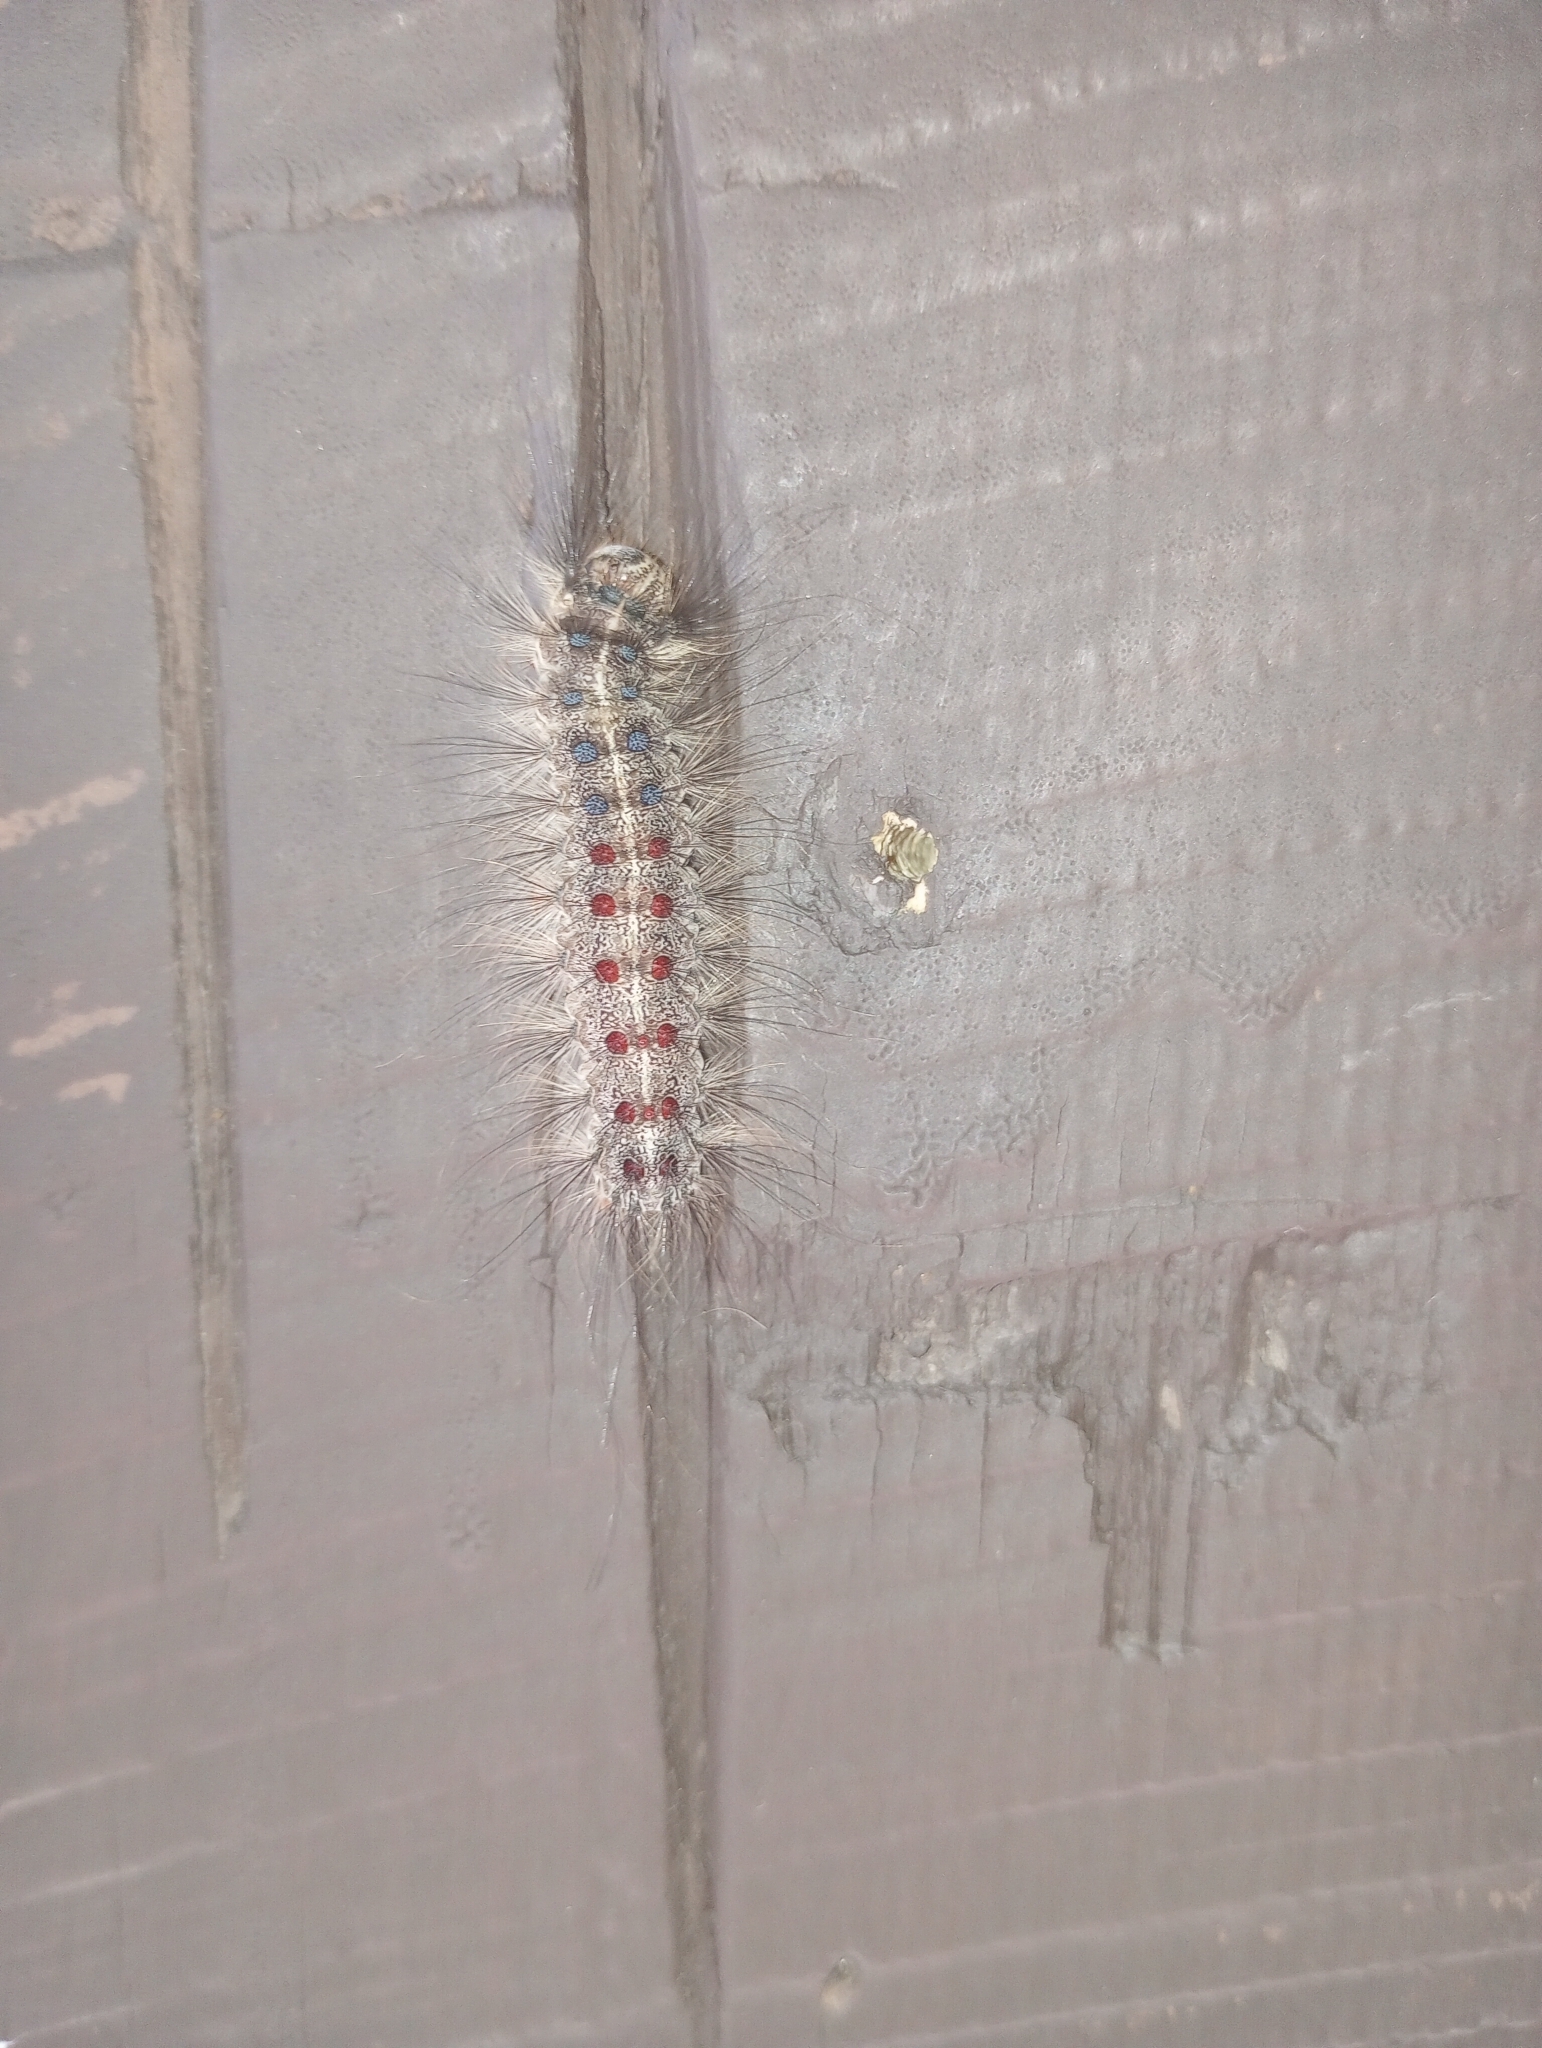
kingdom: Animalia
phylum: Arthropoda
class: Insecta
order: Lepidoptera
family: Erebidae
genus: Lymantria
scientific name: Lymantria dispar
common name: Gypsy moth
